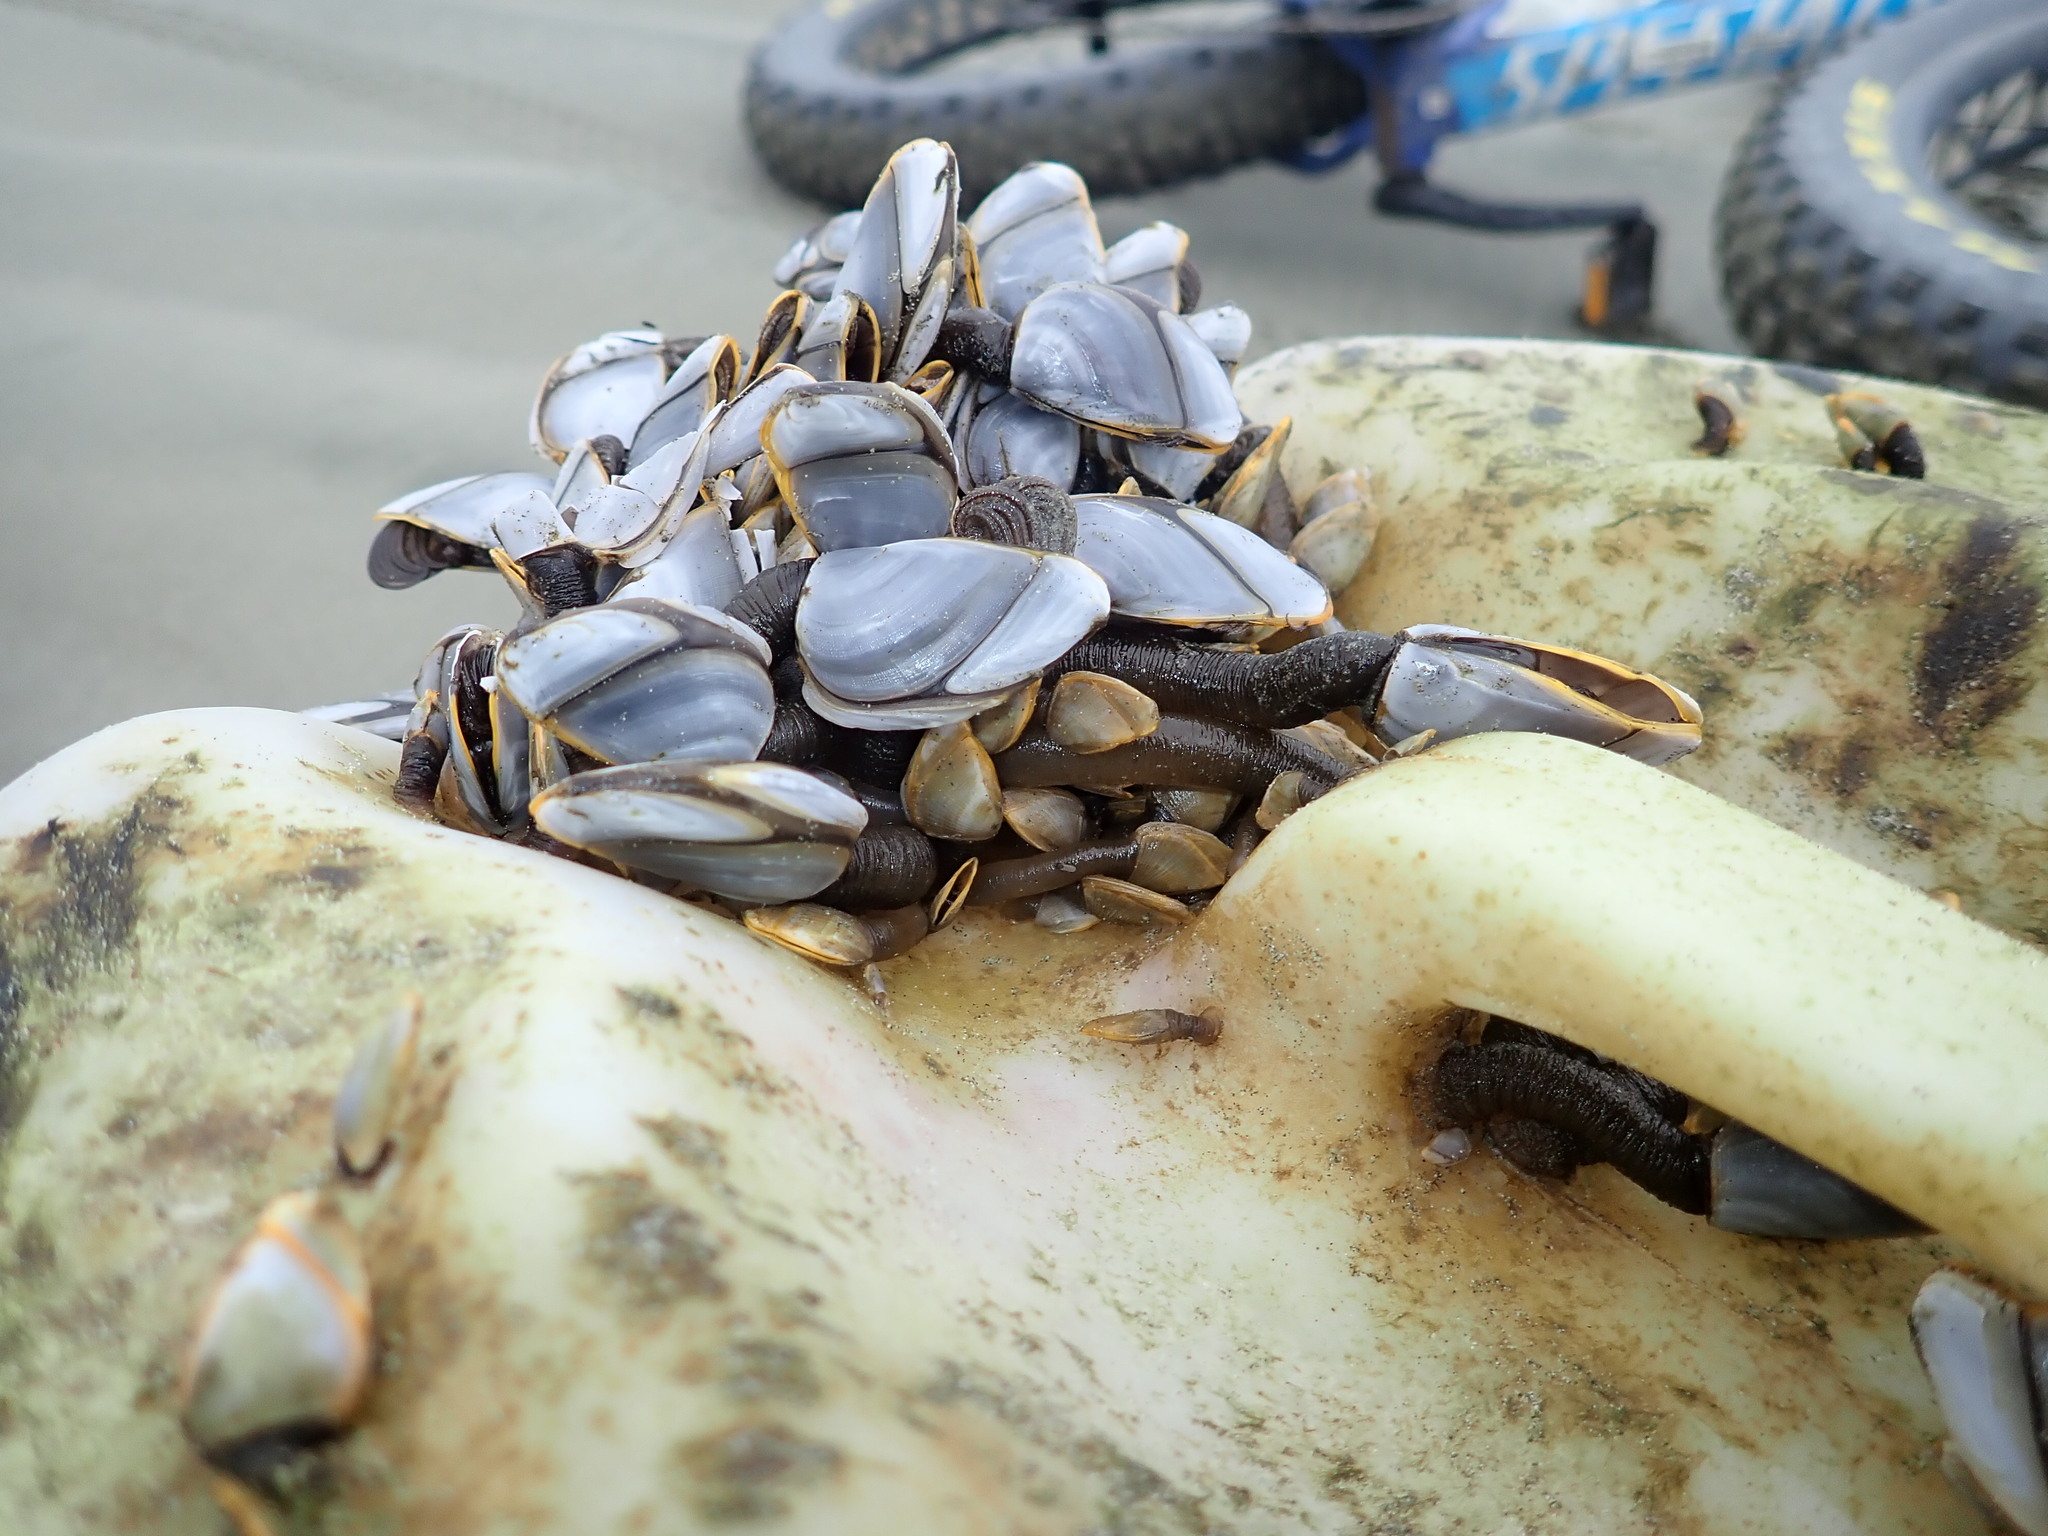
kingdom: Animalia
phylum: Arthropoda
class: Maxillopoda
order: Pedunculata
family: Lepadidae
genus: Lepas
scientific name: Lepas testudinata
